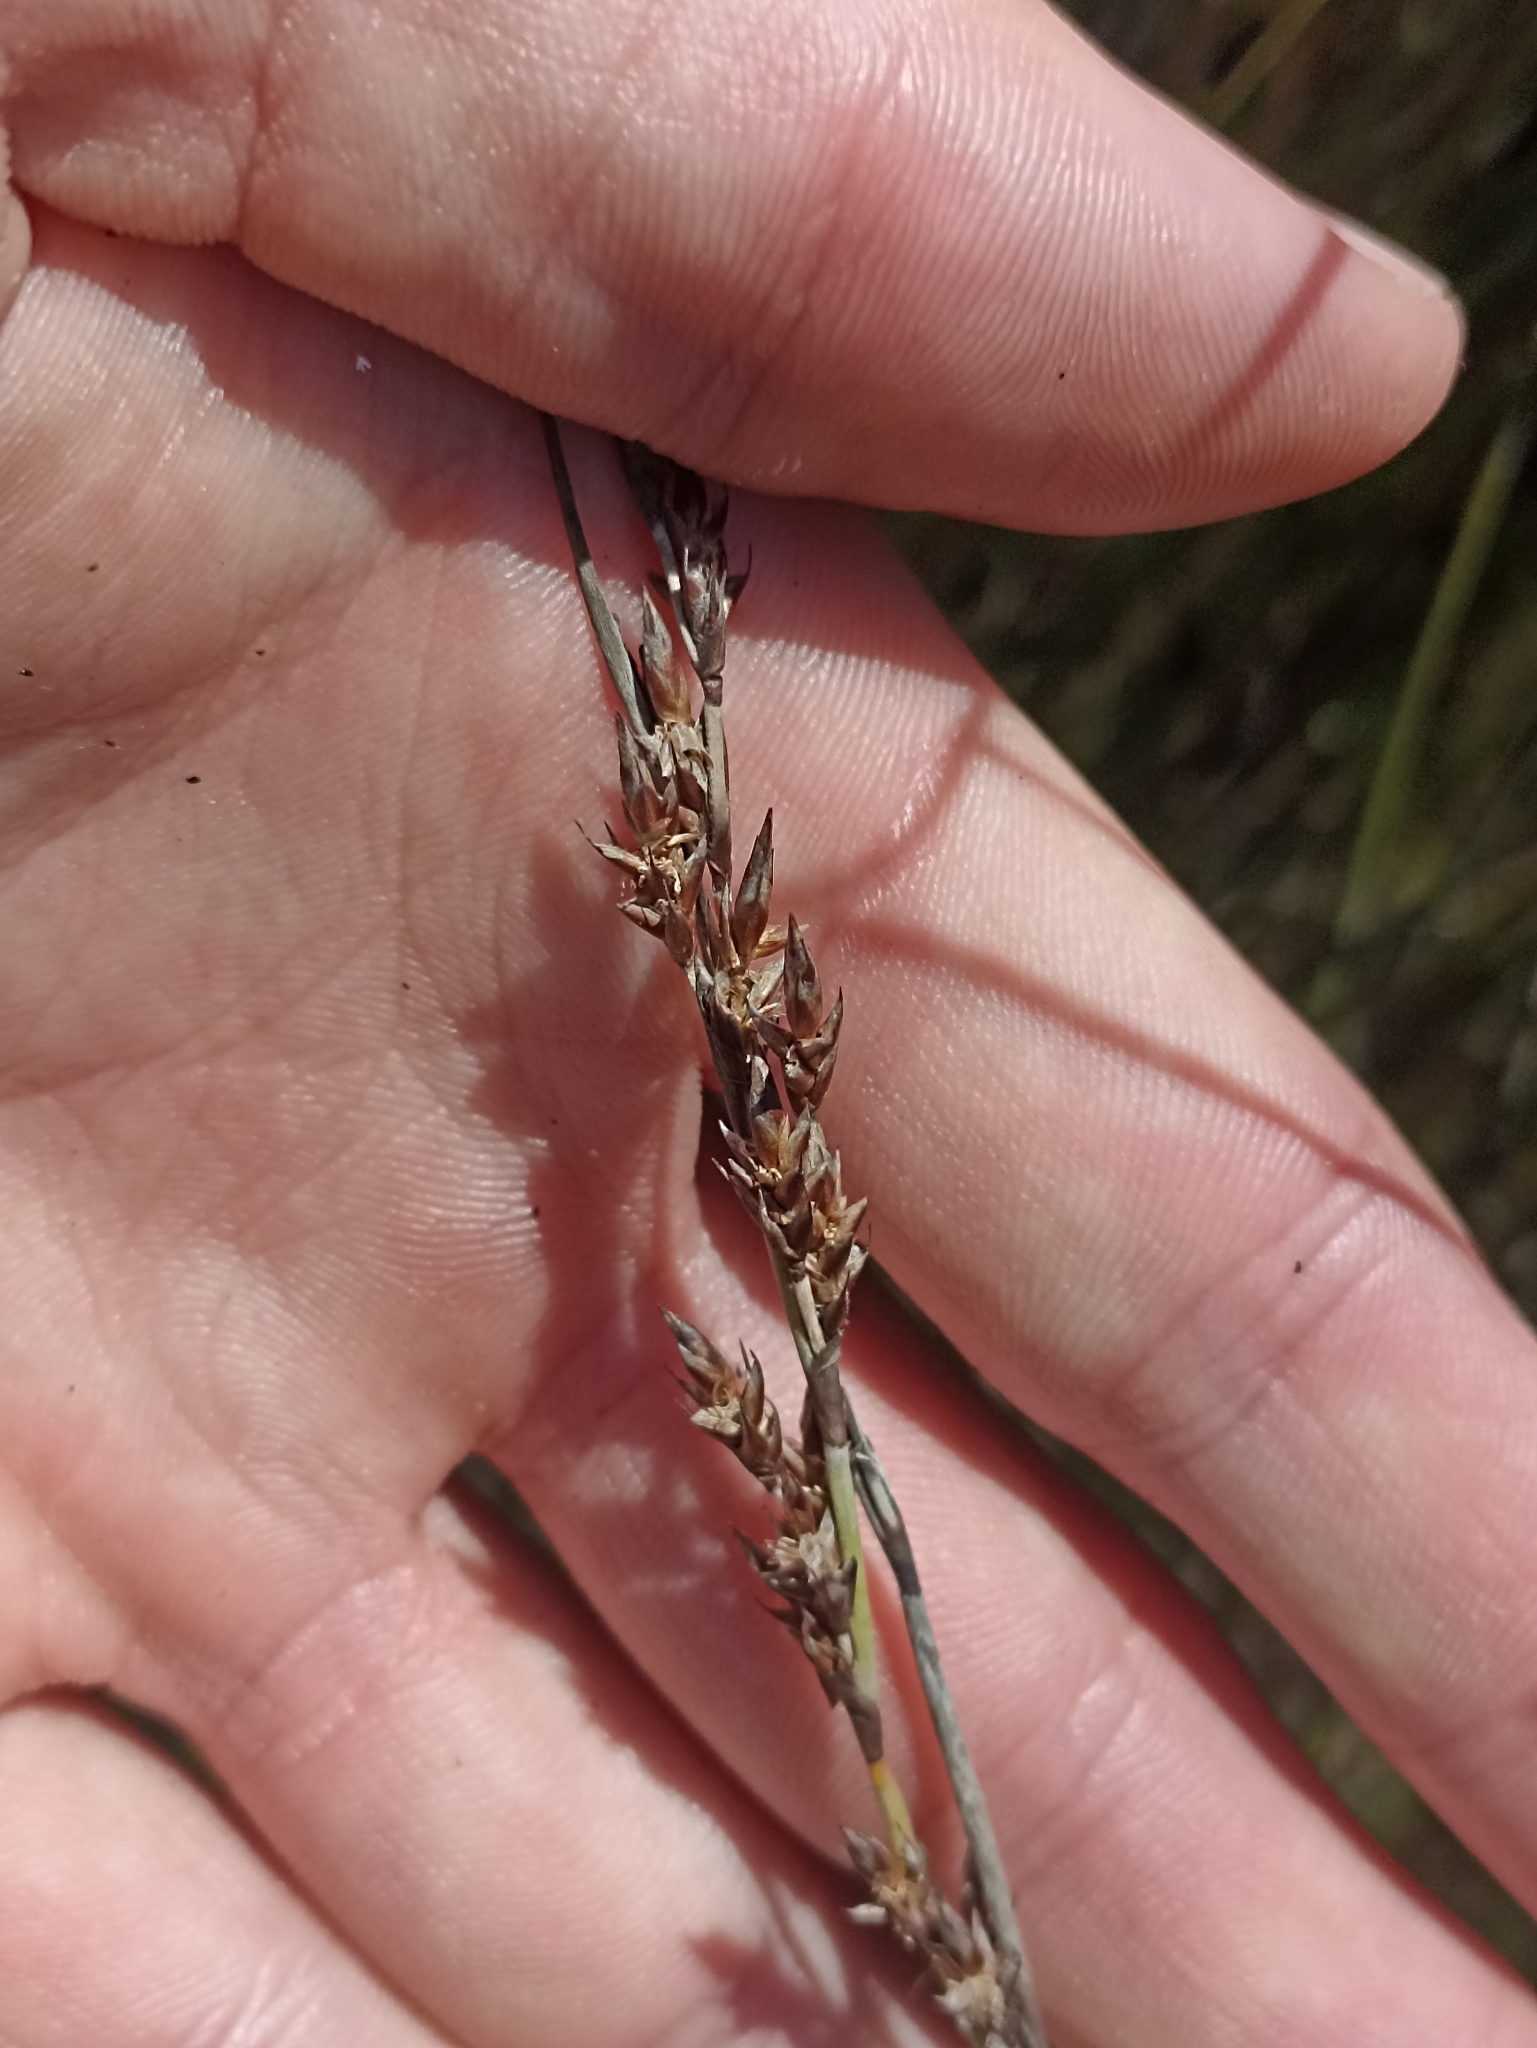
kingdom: Plantae
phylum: Tracheophyta
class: Liliopsida
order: Poales
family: Restionaceae
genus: Apodasmia
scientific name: Apodasmia similis
